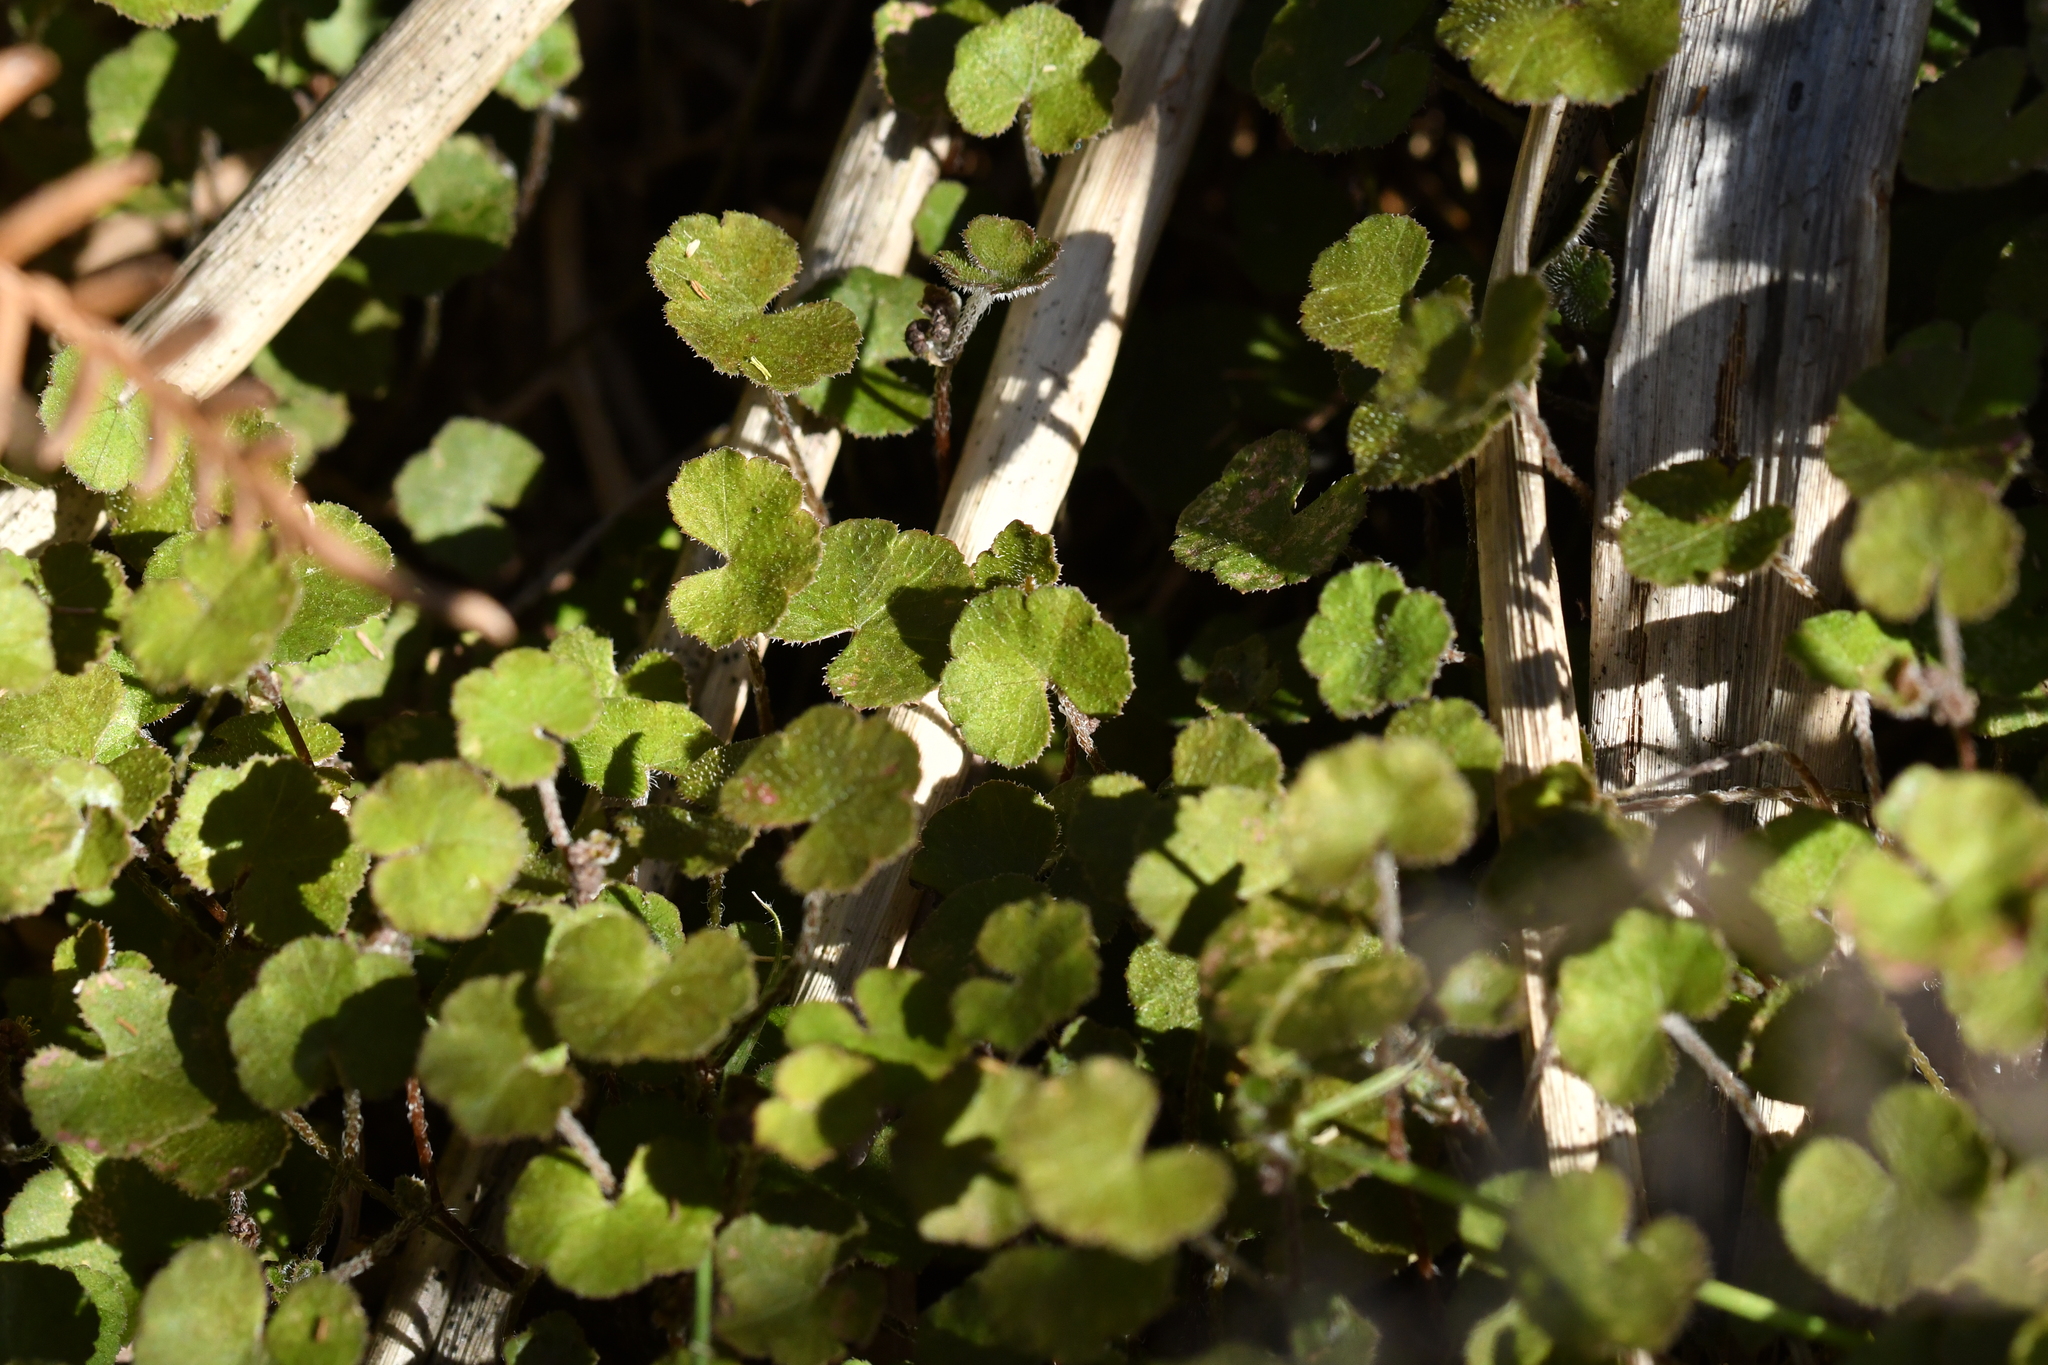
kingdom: Plantae
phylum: Tracheophyta
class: Magnoliopsida
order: Apiales
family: Araliaceae
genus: Hydrocotyle
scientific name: Hydrocotyle novae-zeelandiae
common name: New zealand pennywort
